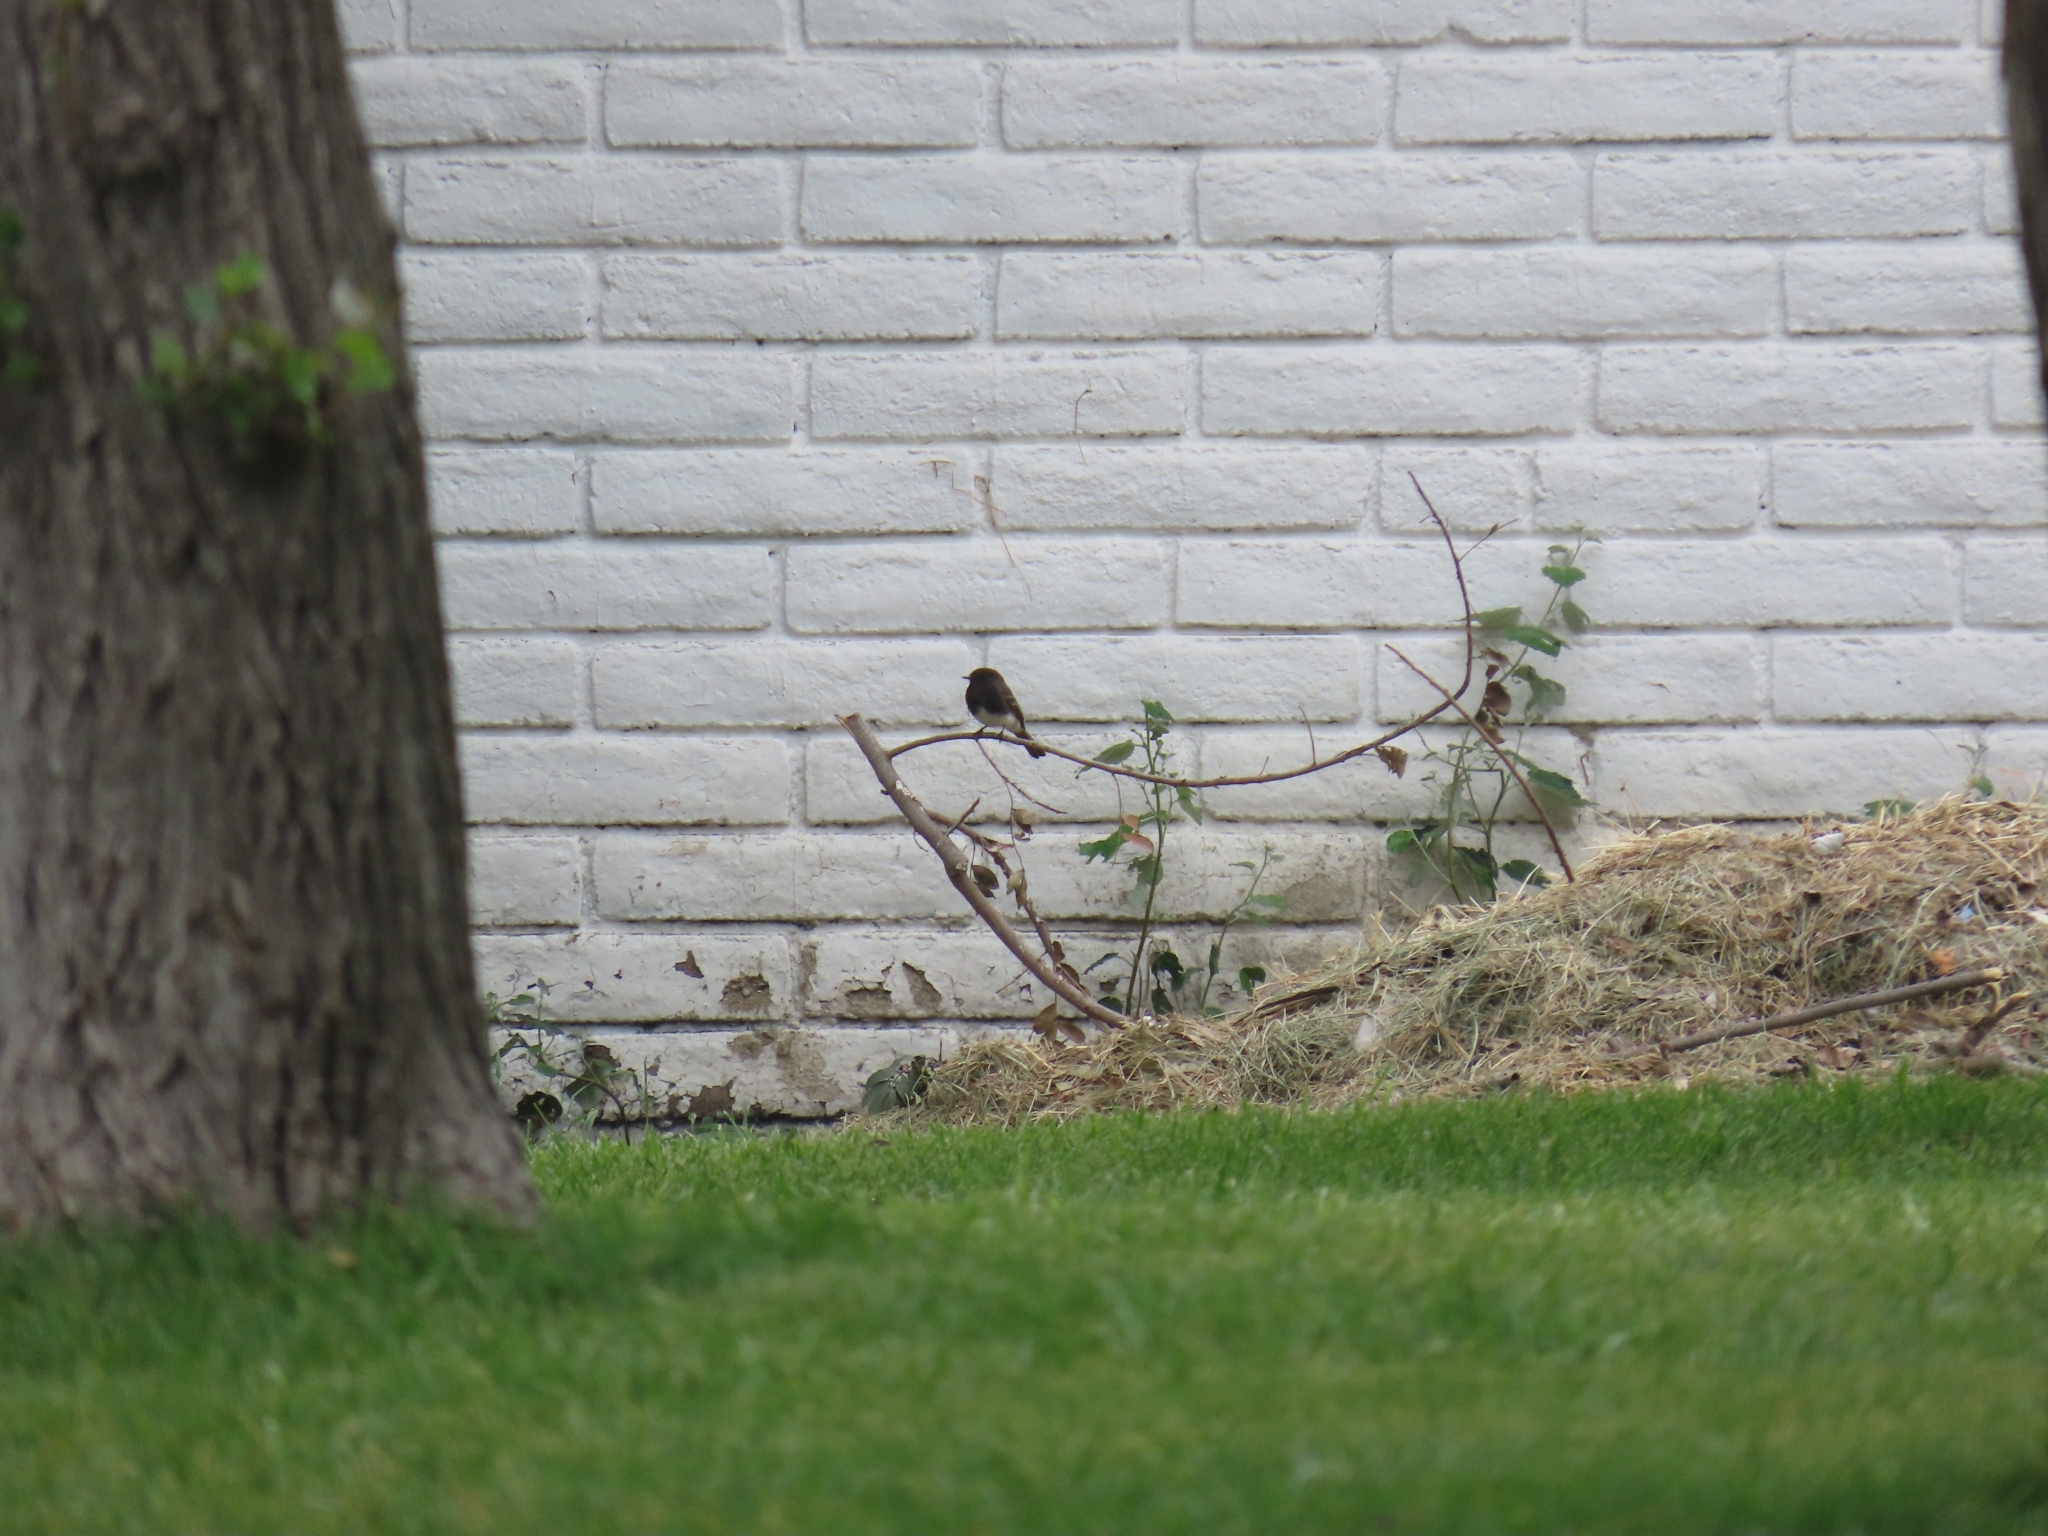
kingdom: Animalia
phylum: Chordata
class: Aves
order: Passeriformes
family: Tyrannidae
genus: Sayornis
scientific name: Sayornis nigricans
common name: Black phoebe
